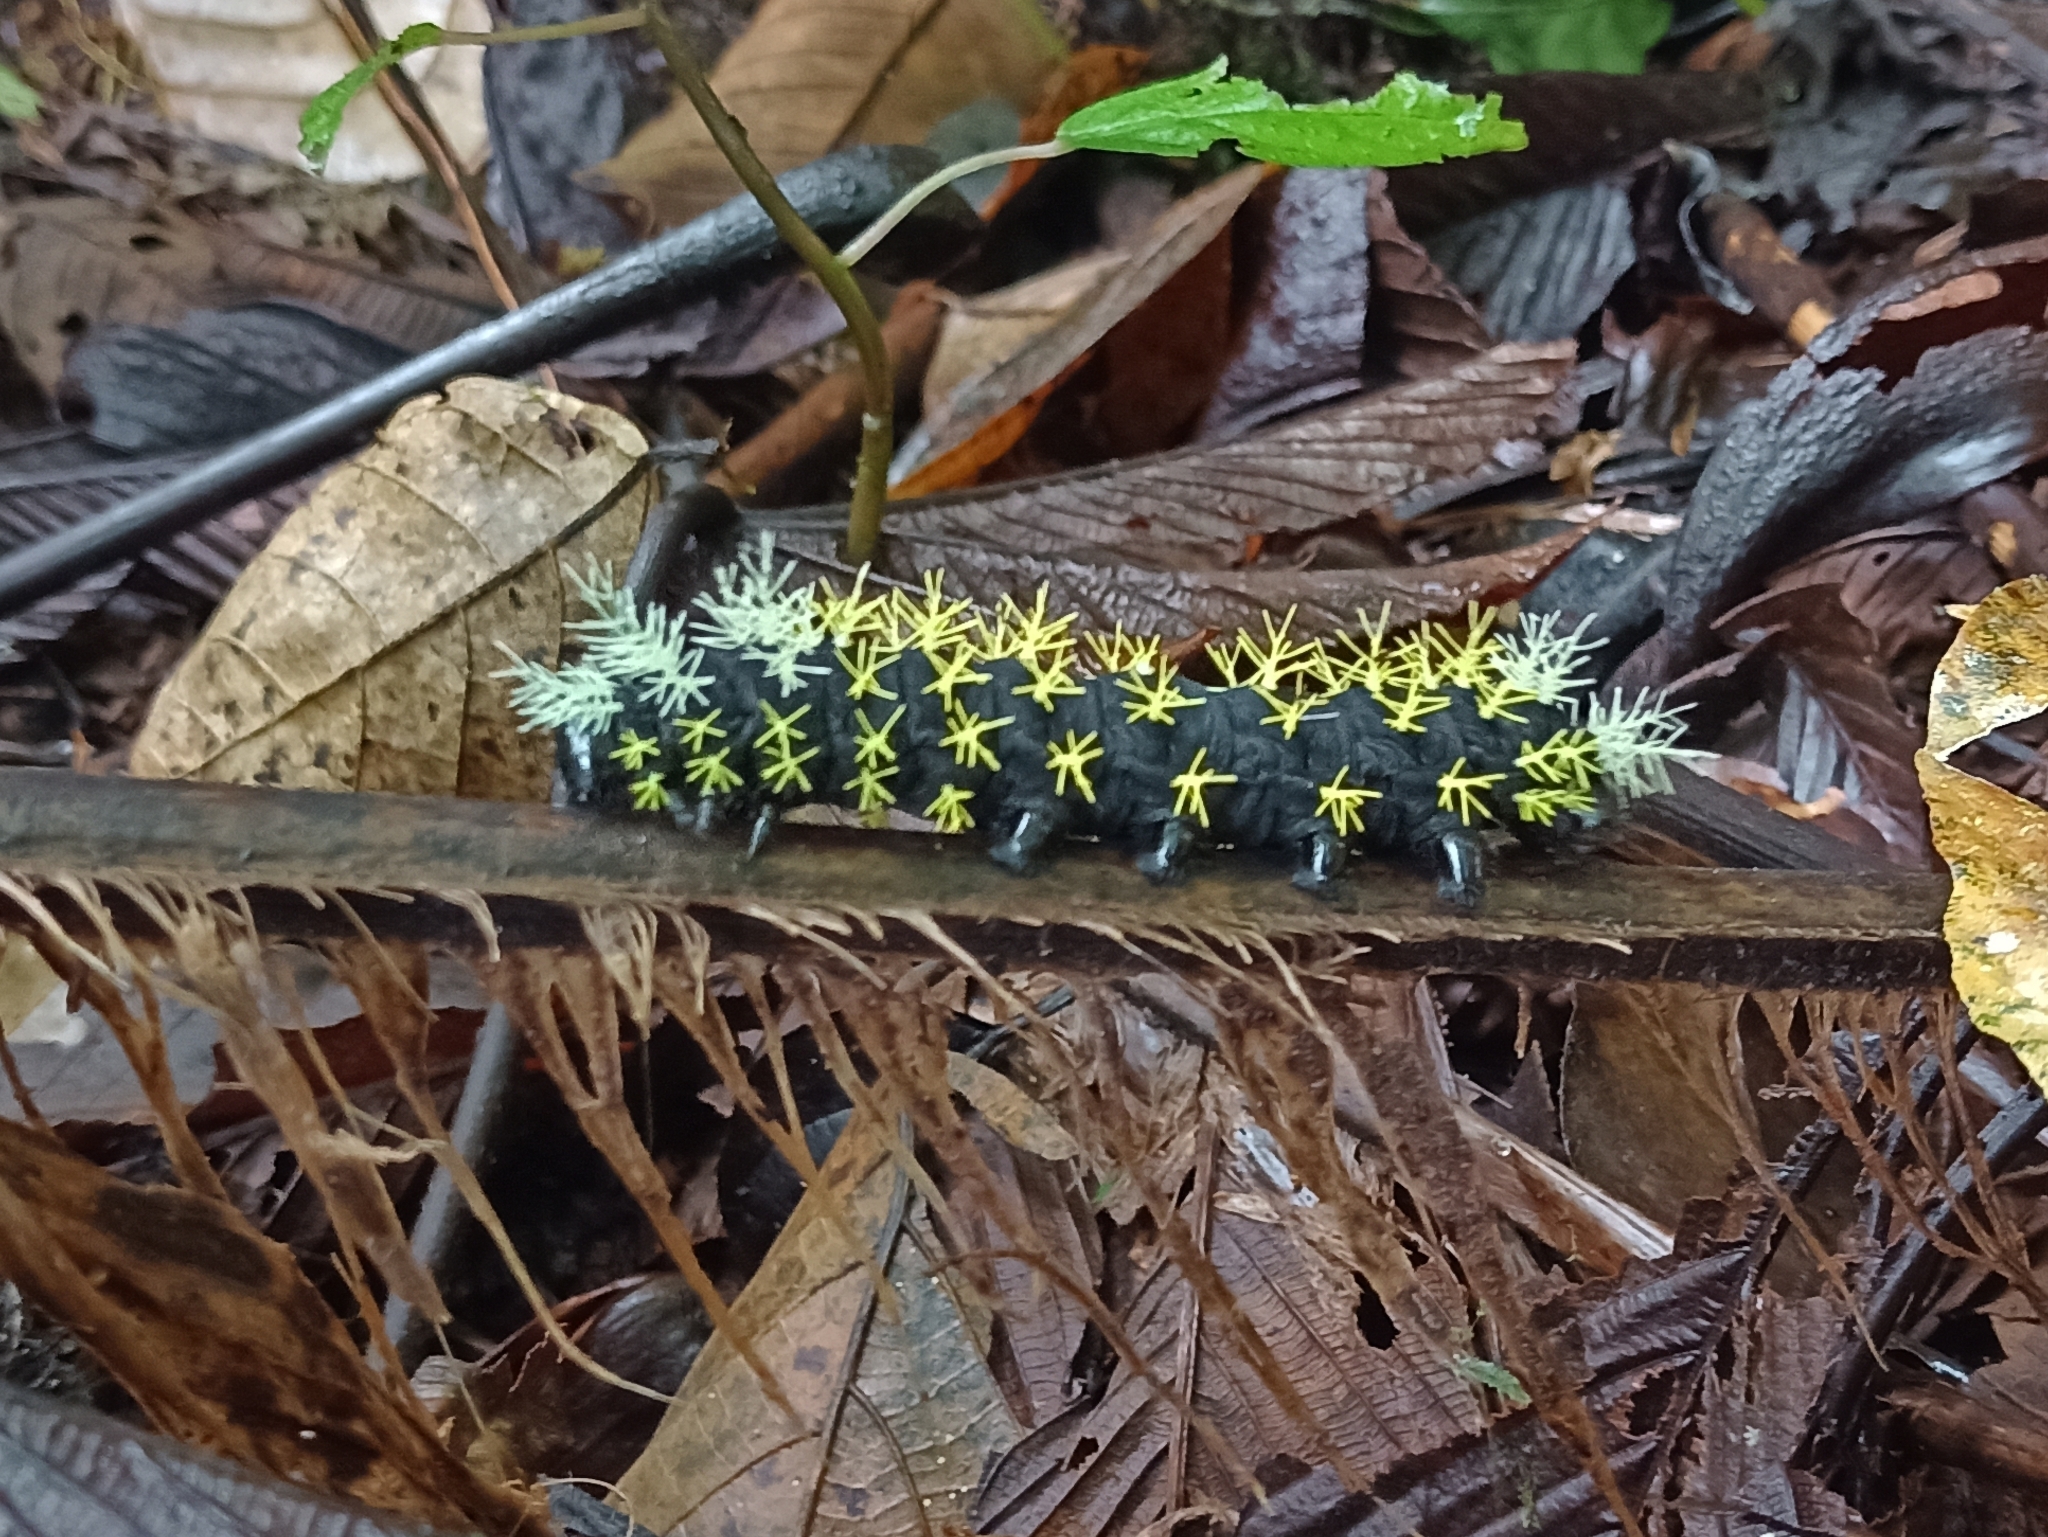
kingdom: Animalia
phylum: Arthropoda
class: Insecta
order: Lepidoptera
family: Saturniidae
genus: Leucanella
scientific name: Leucanella hosmera
